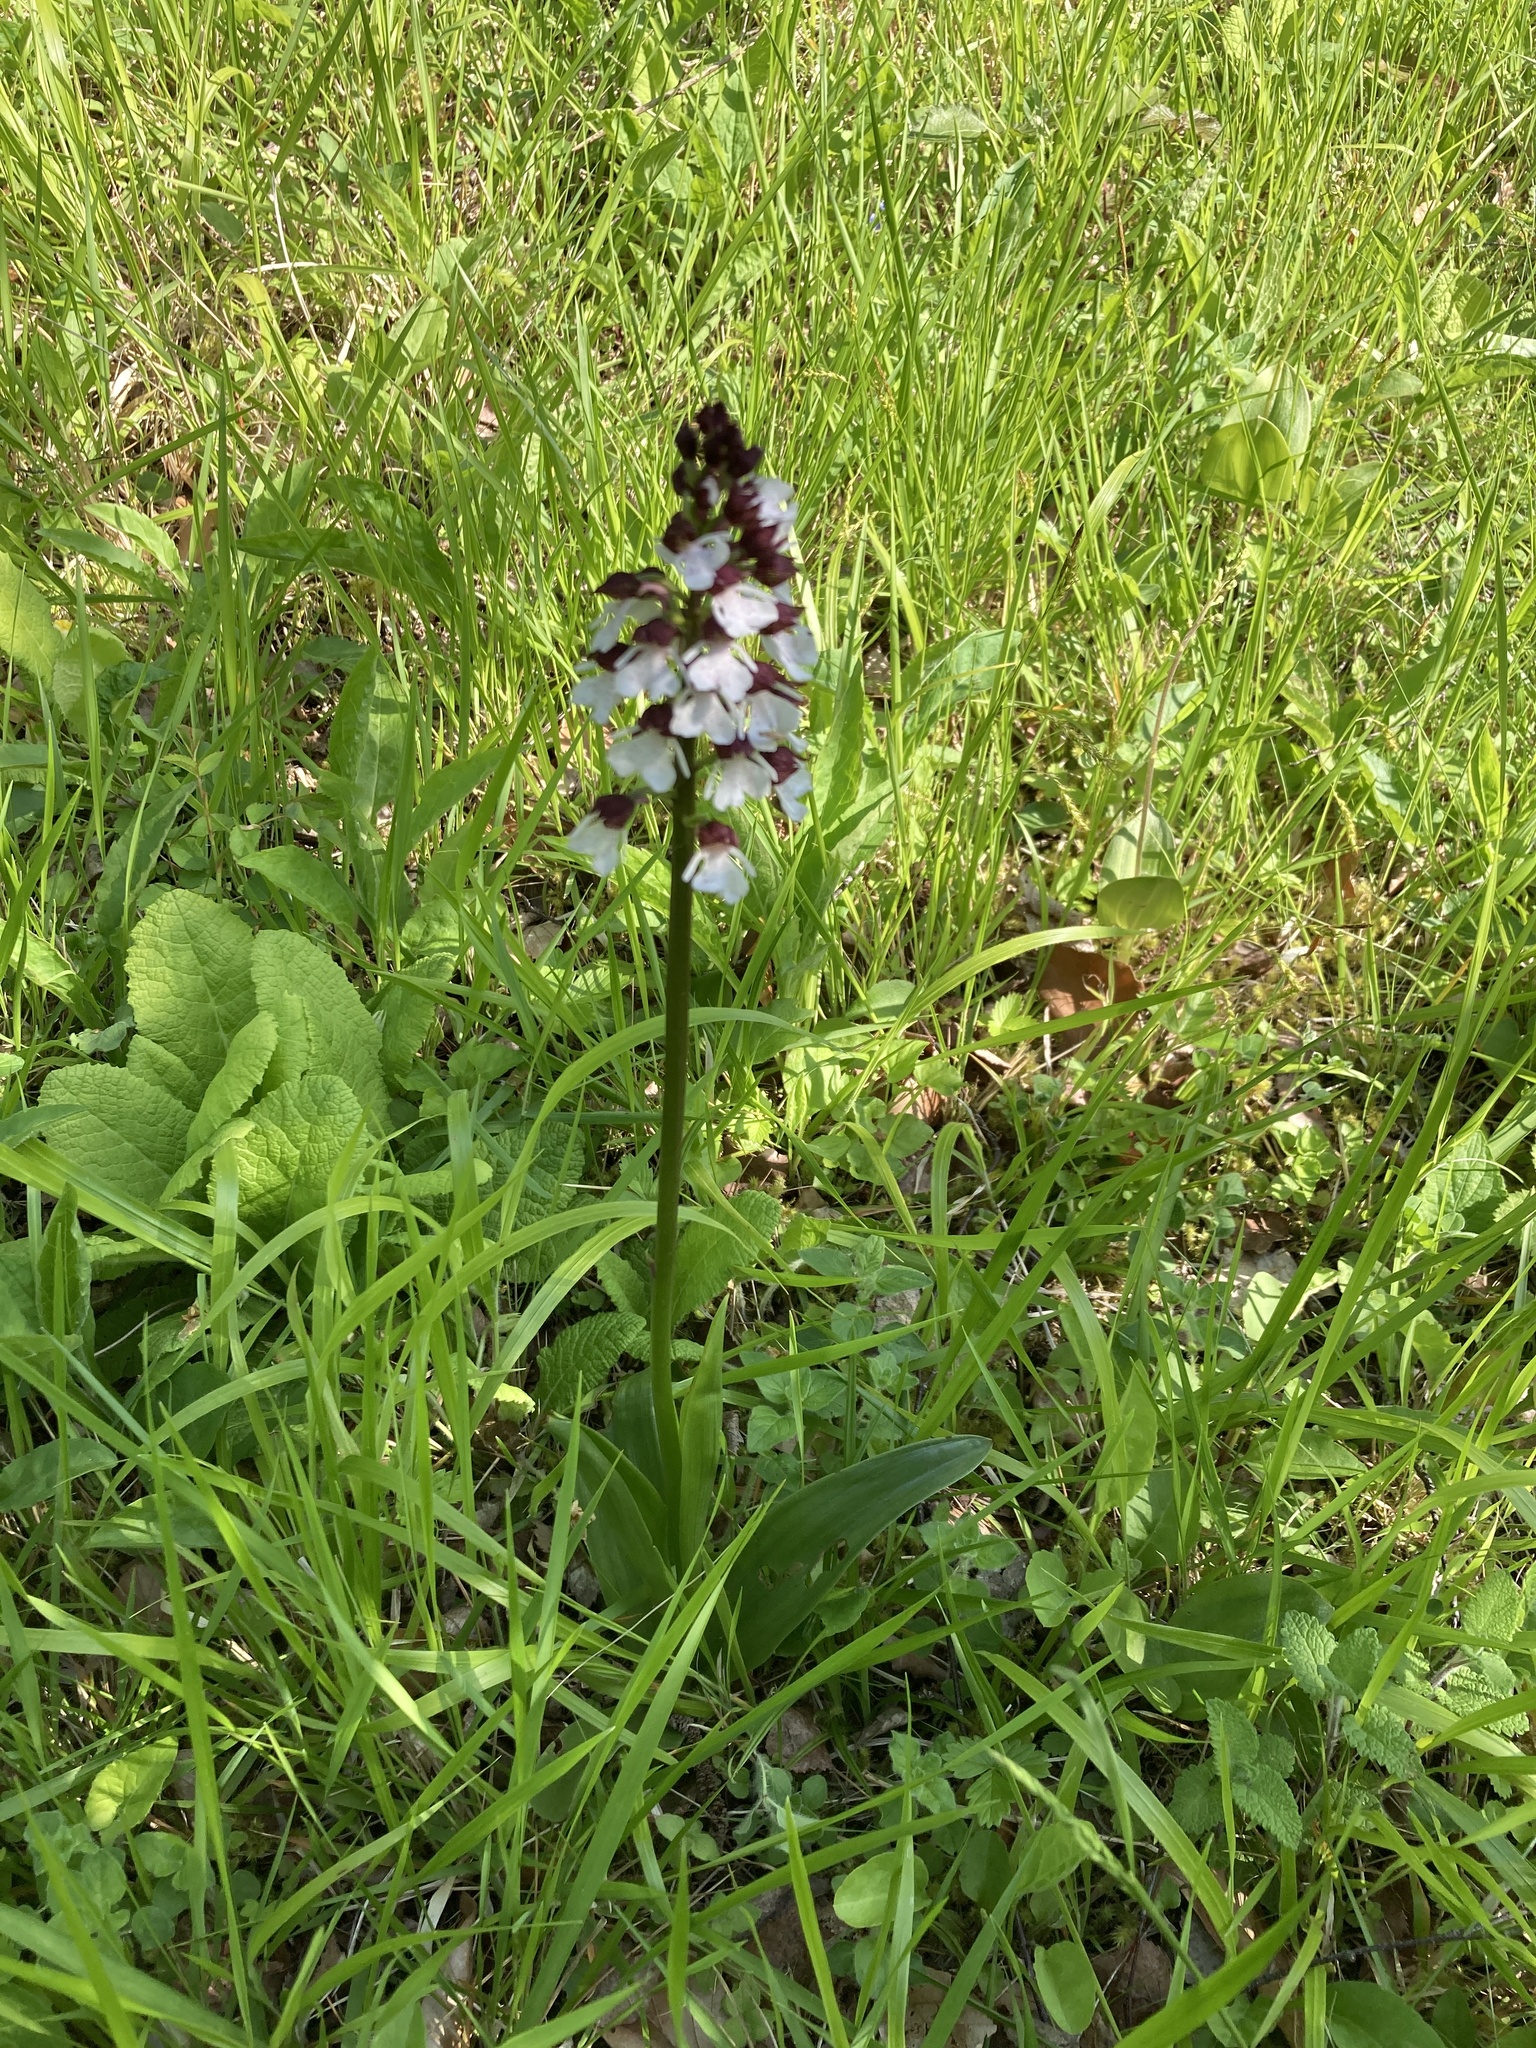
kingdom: Plantae
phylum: Tracheophyta
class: Liliopsida
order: Asparagales
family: Orchidaceae
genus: Orchis
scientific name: Orchis purpurea
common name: Lady orchid
